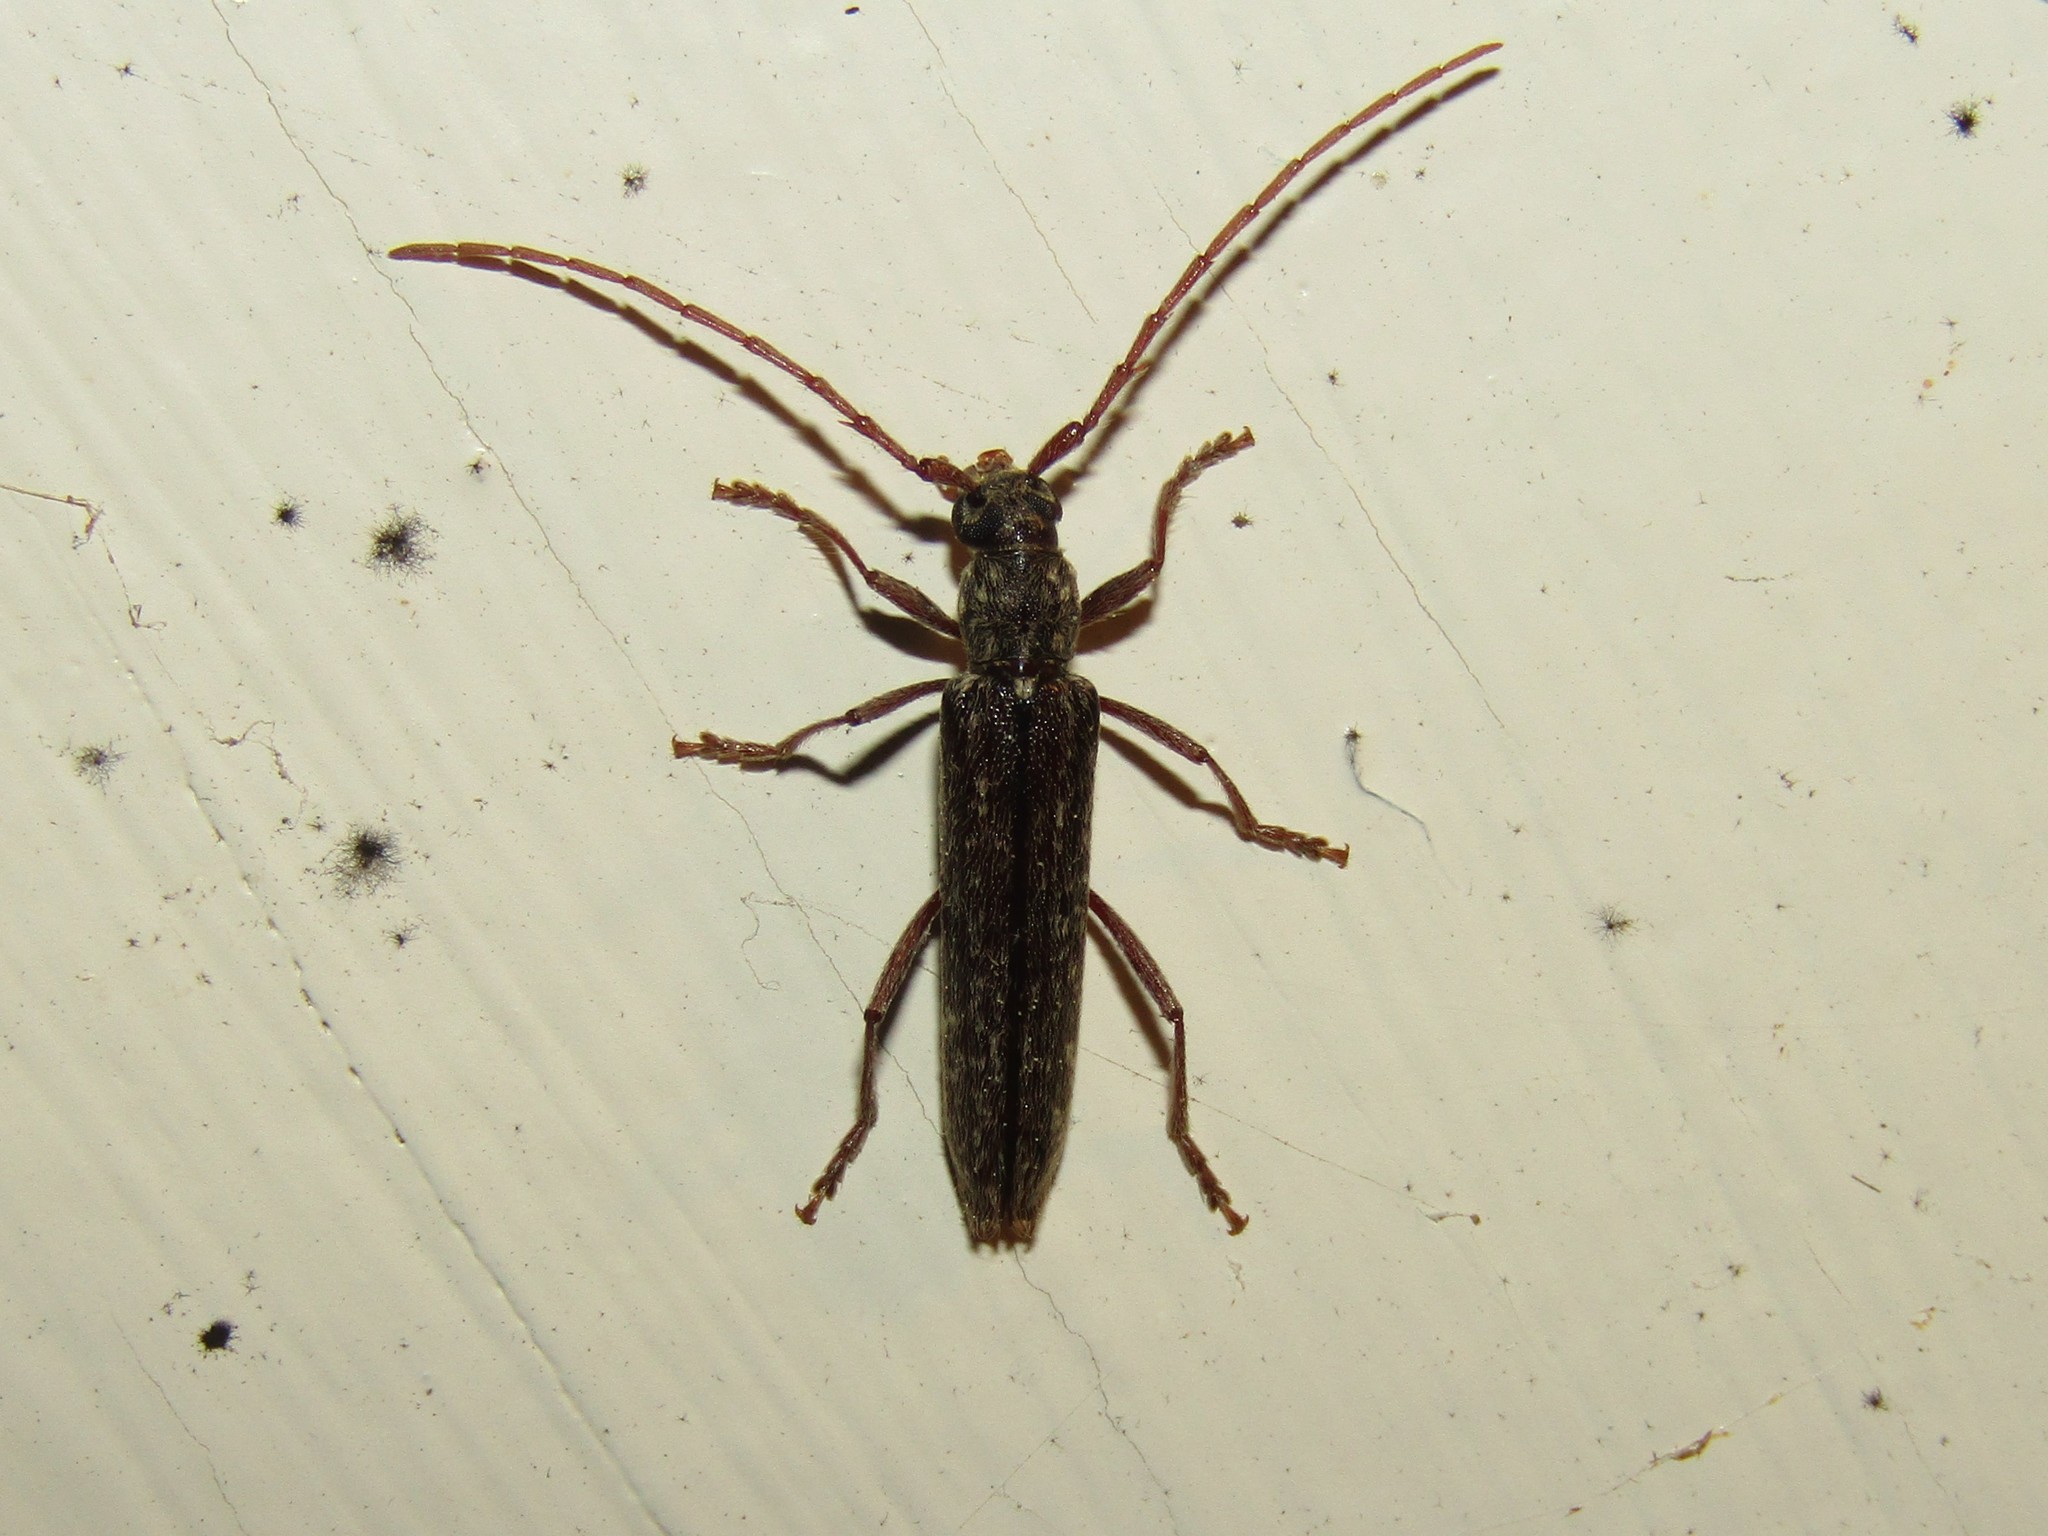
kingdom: Animalia
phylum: Arthropoda
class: Insecta
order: Coleoptera
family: Cerambycidae
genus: Anelaphus
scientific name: Anelaphus villosus
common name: Twig pruner
